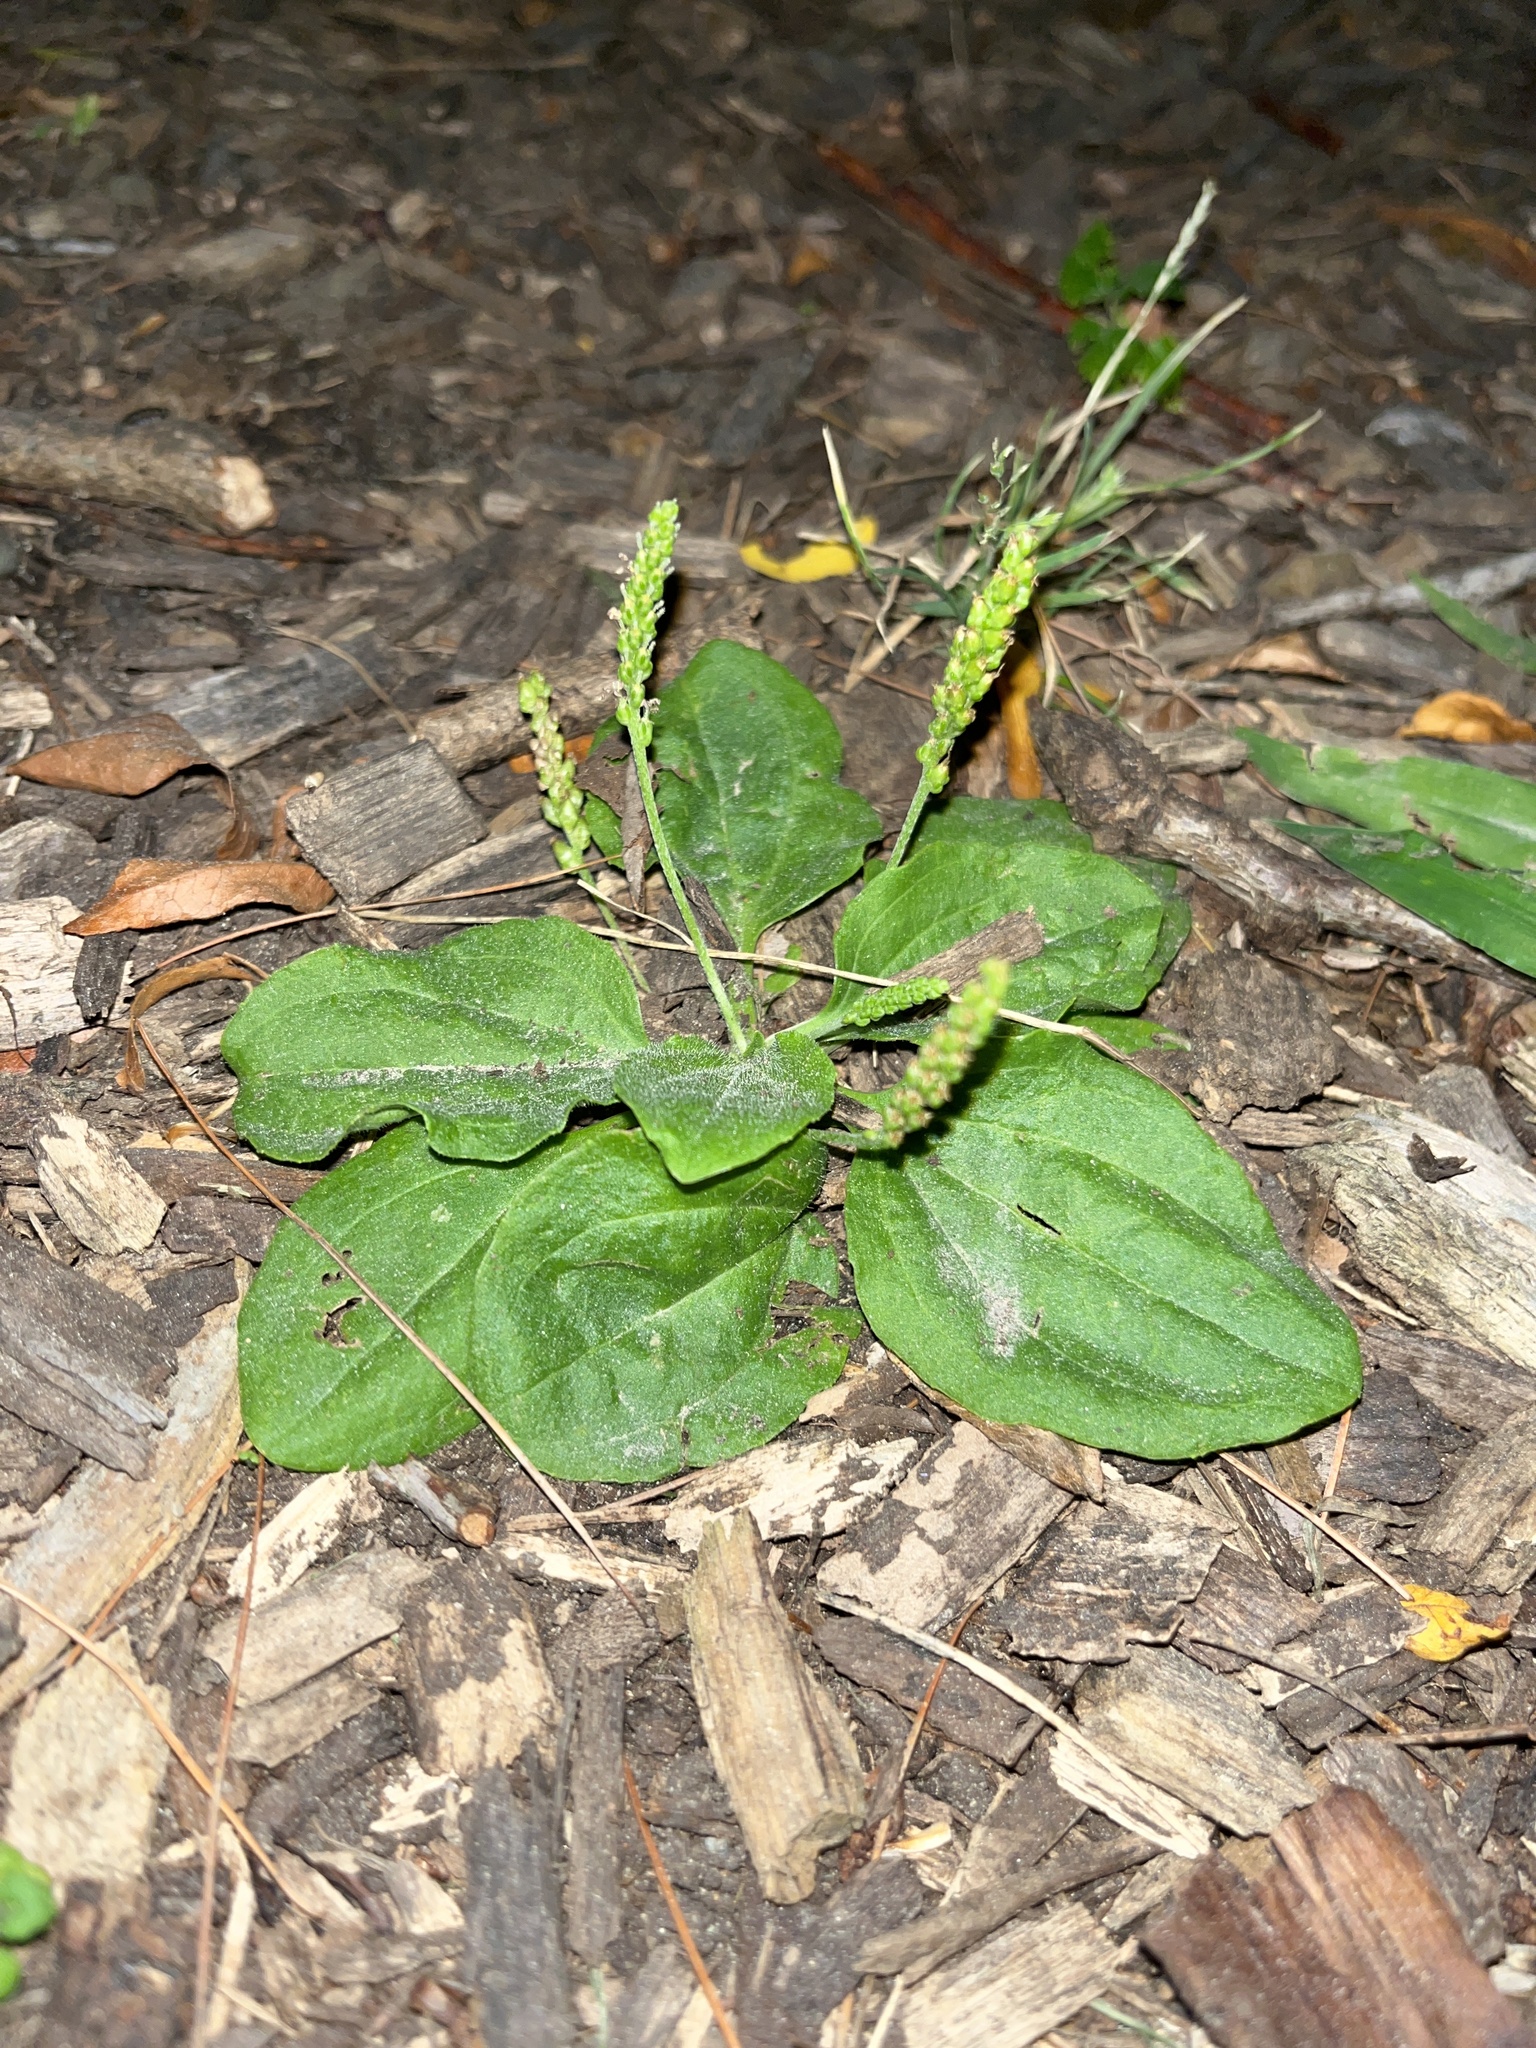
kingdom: Plantae
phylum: Tracheophyta
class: Magnoliopsida
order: Lamiales
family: Plantaginaceae
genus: Plantago
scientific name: Plantago major
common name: Common plantain
